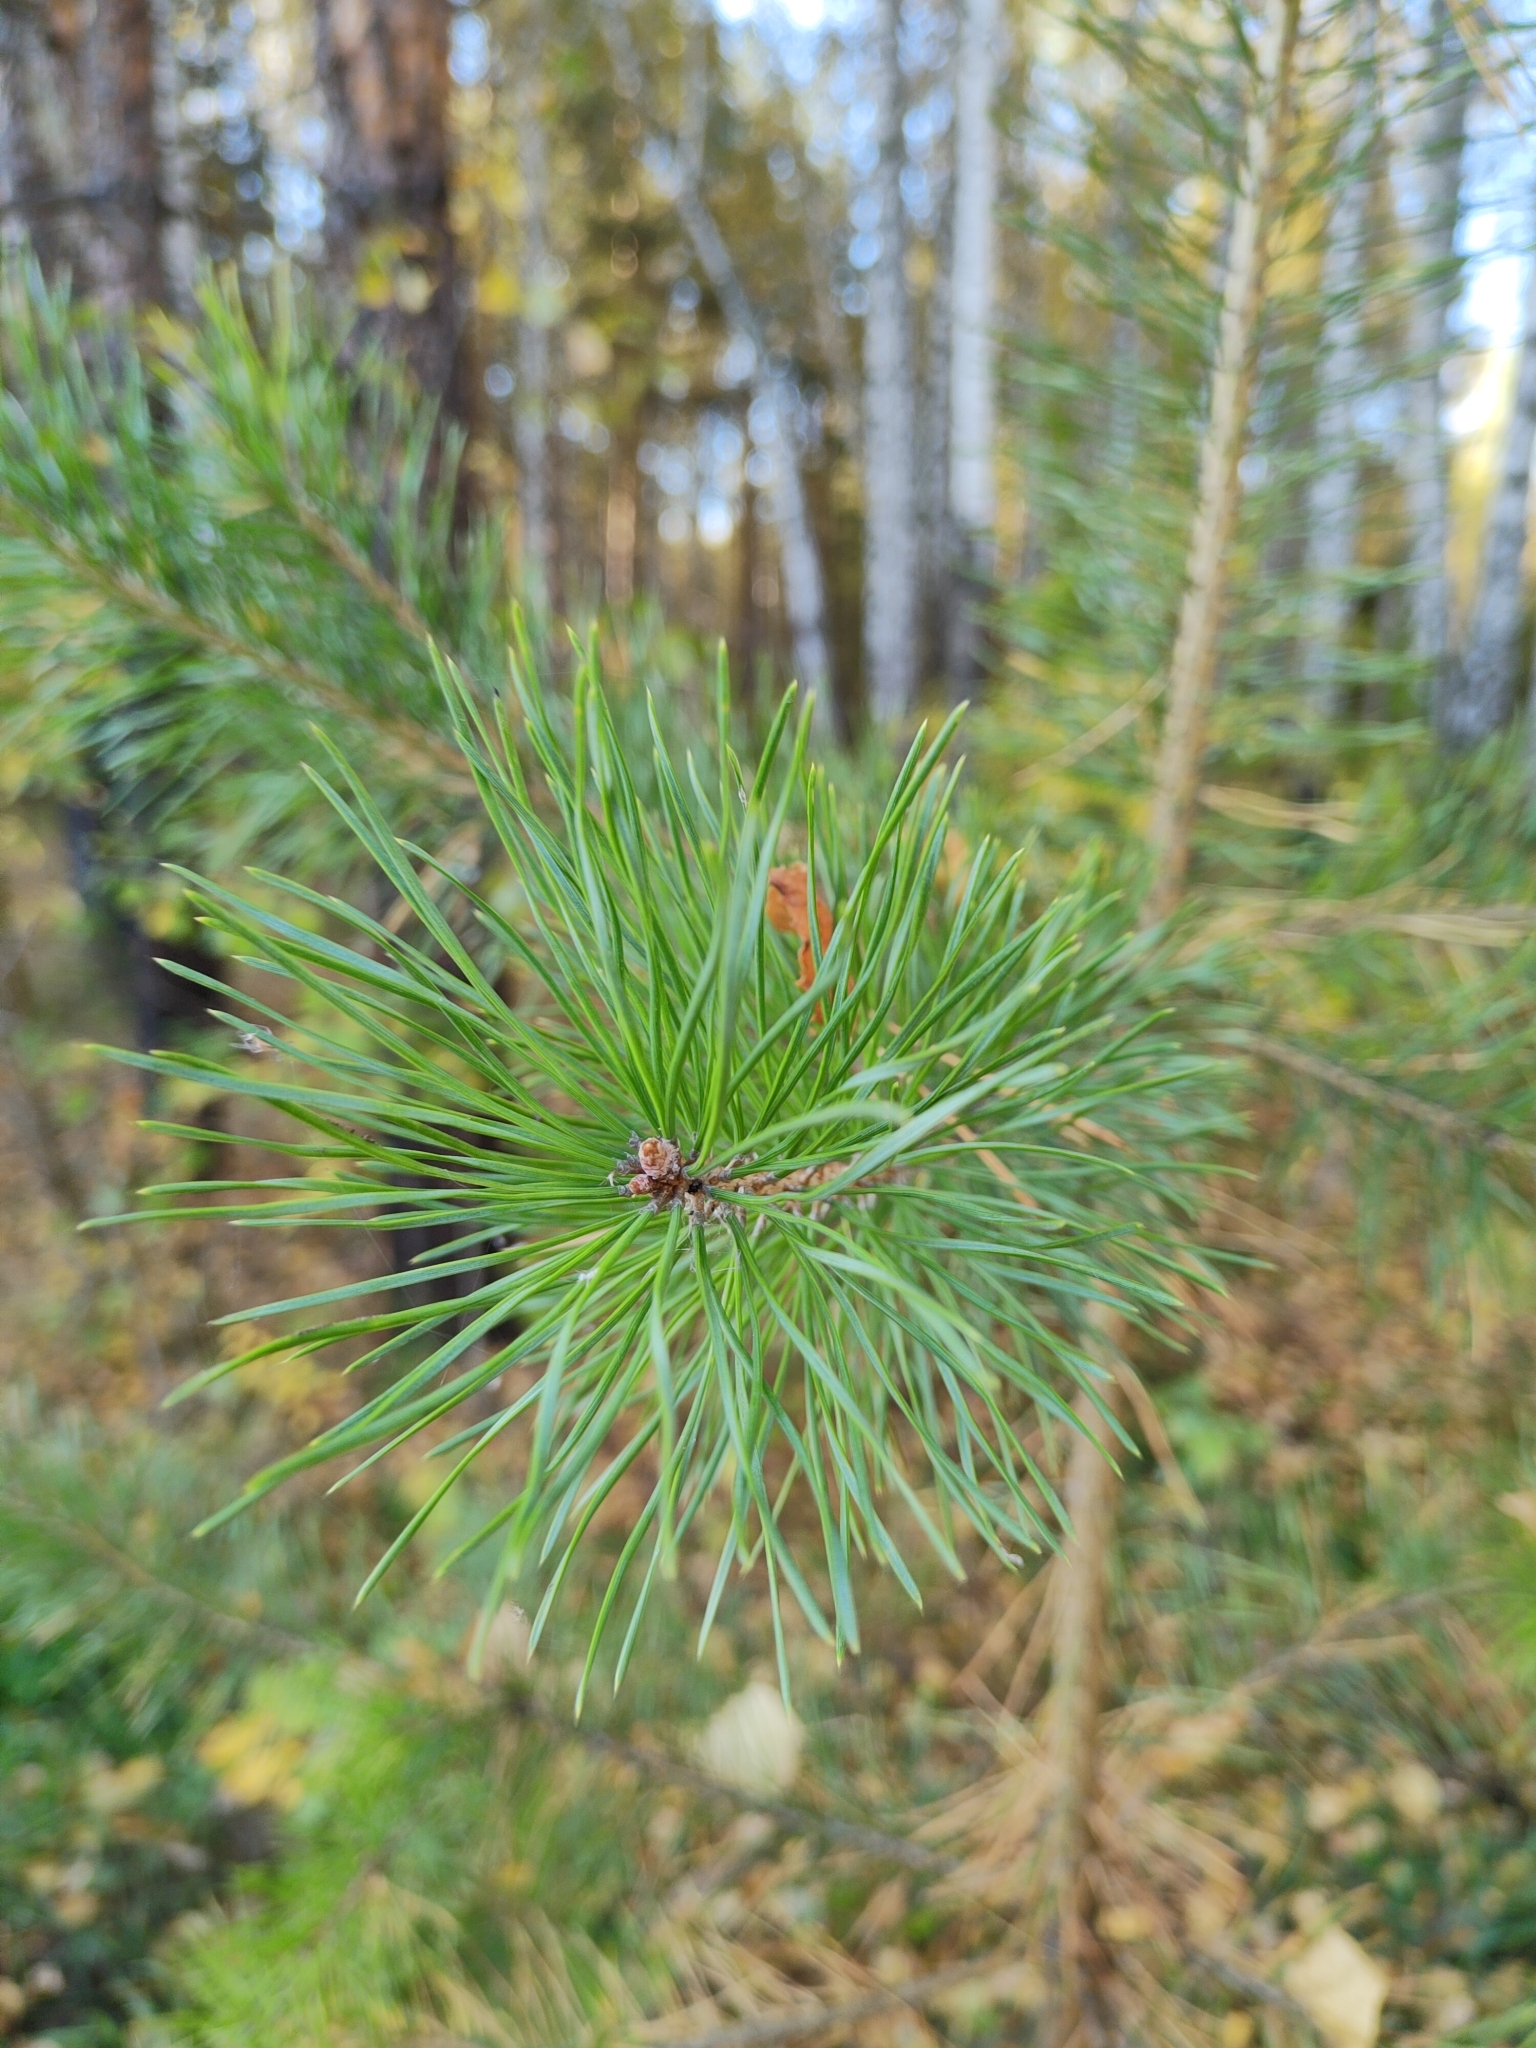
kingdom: Plantae
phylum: Tracheophyta
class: Pinopsida
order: Pinales
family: Pinaceae
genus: Pinus
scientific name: Pinus sylvestris
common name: Scots pine
